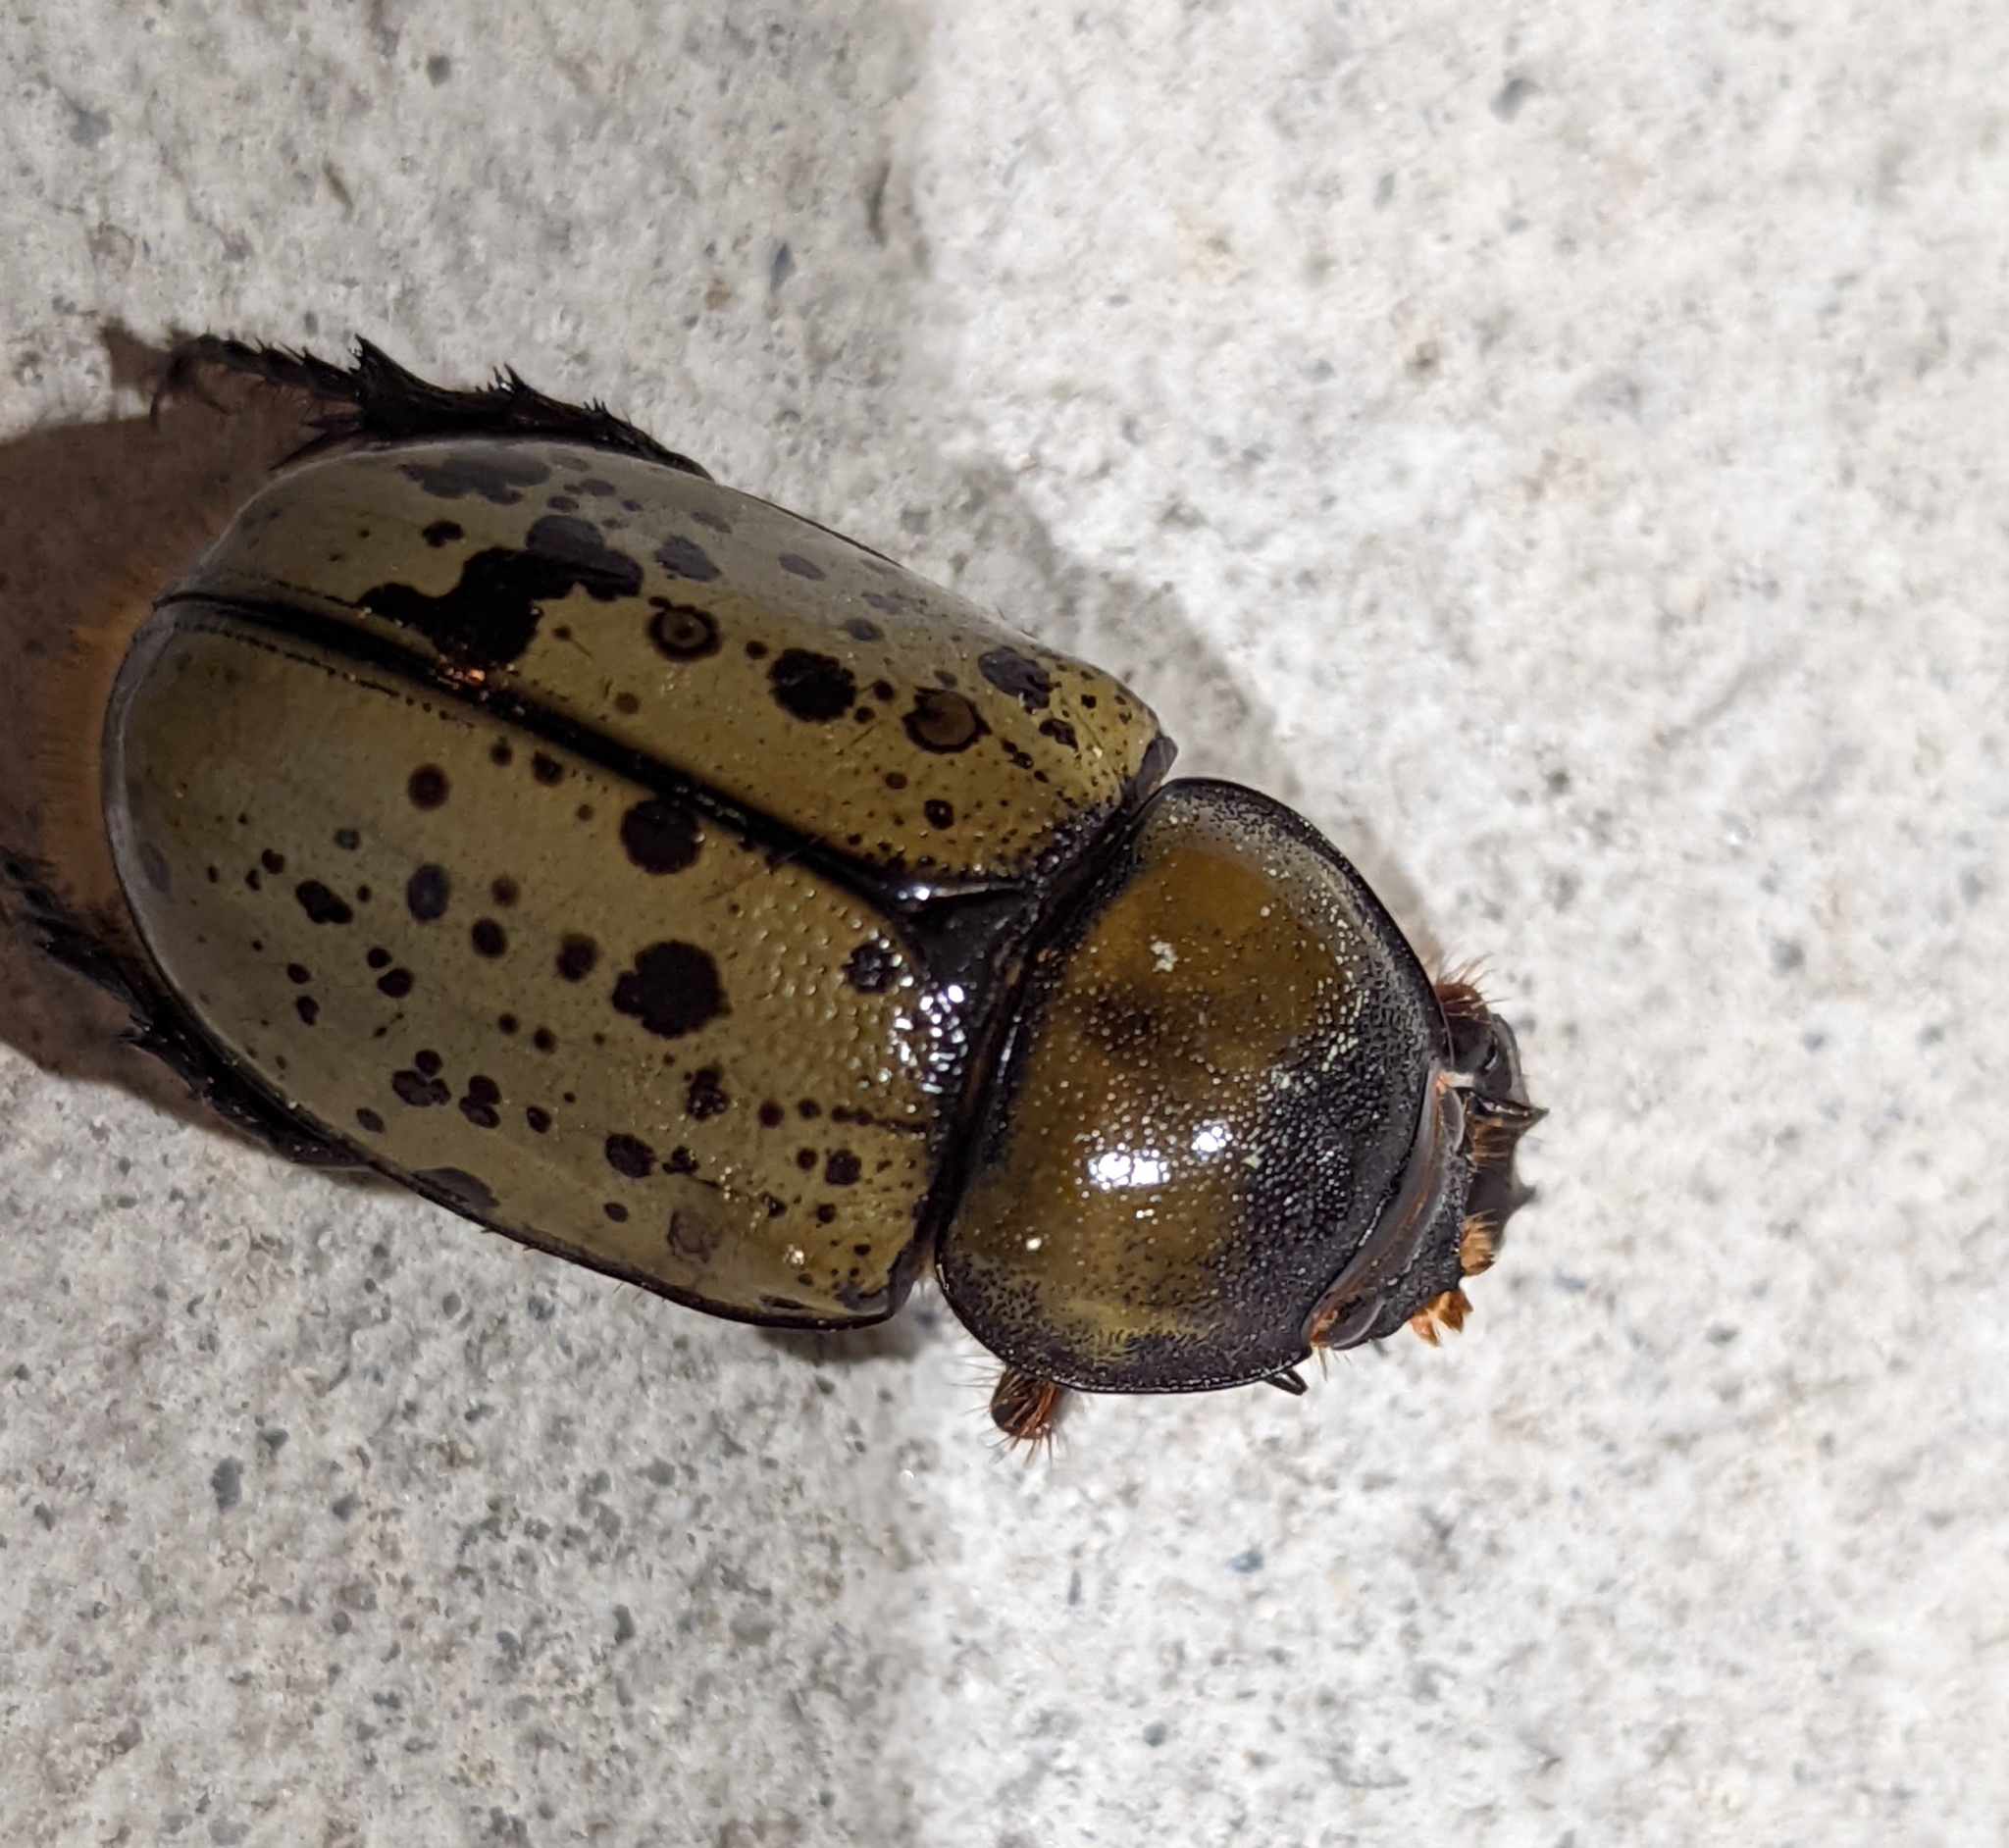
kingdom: Animalia
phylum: Arthropoda
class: Insecta
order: Coleoptera
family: Scarabaeidae
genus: Dynastes
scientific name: Dynastes tityus
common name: Eastern hercules beetle
